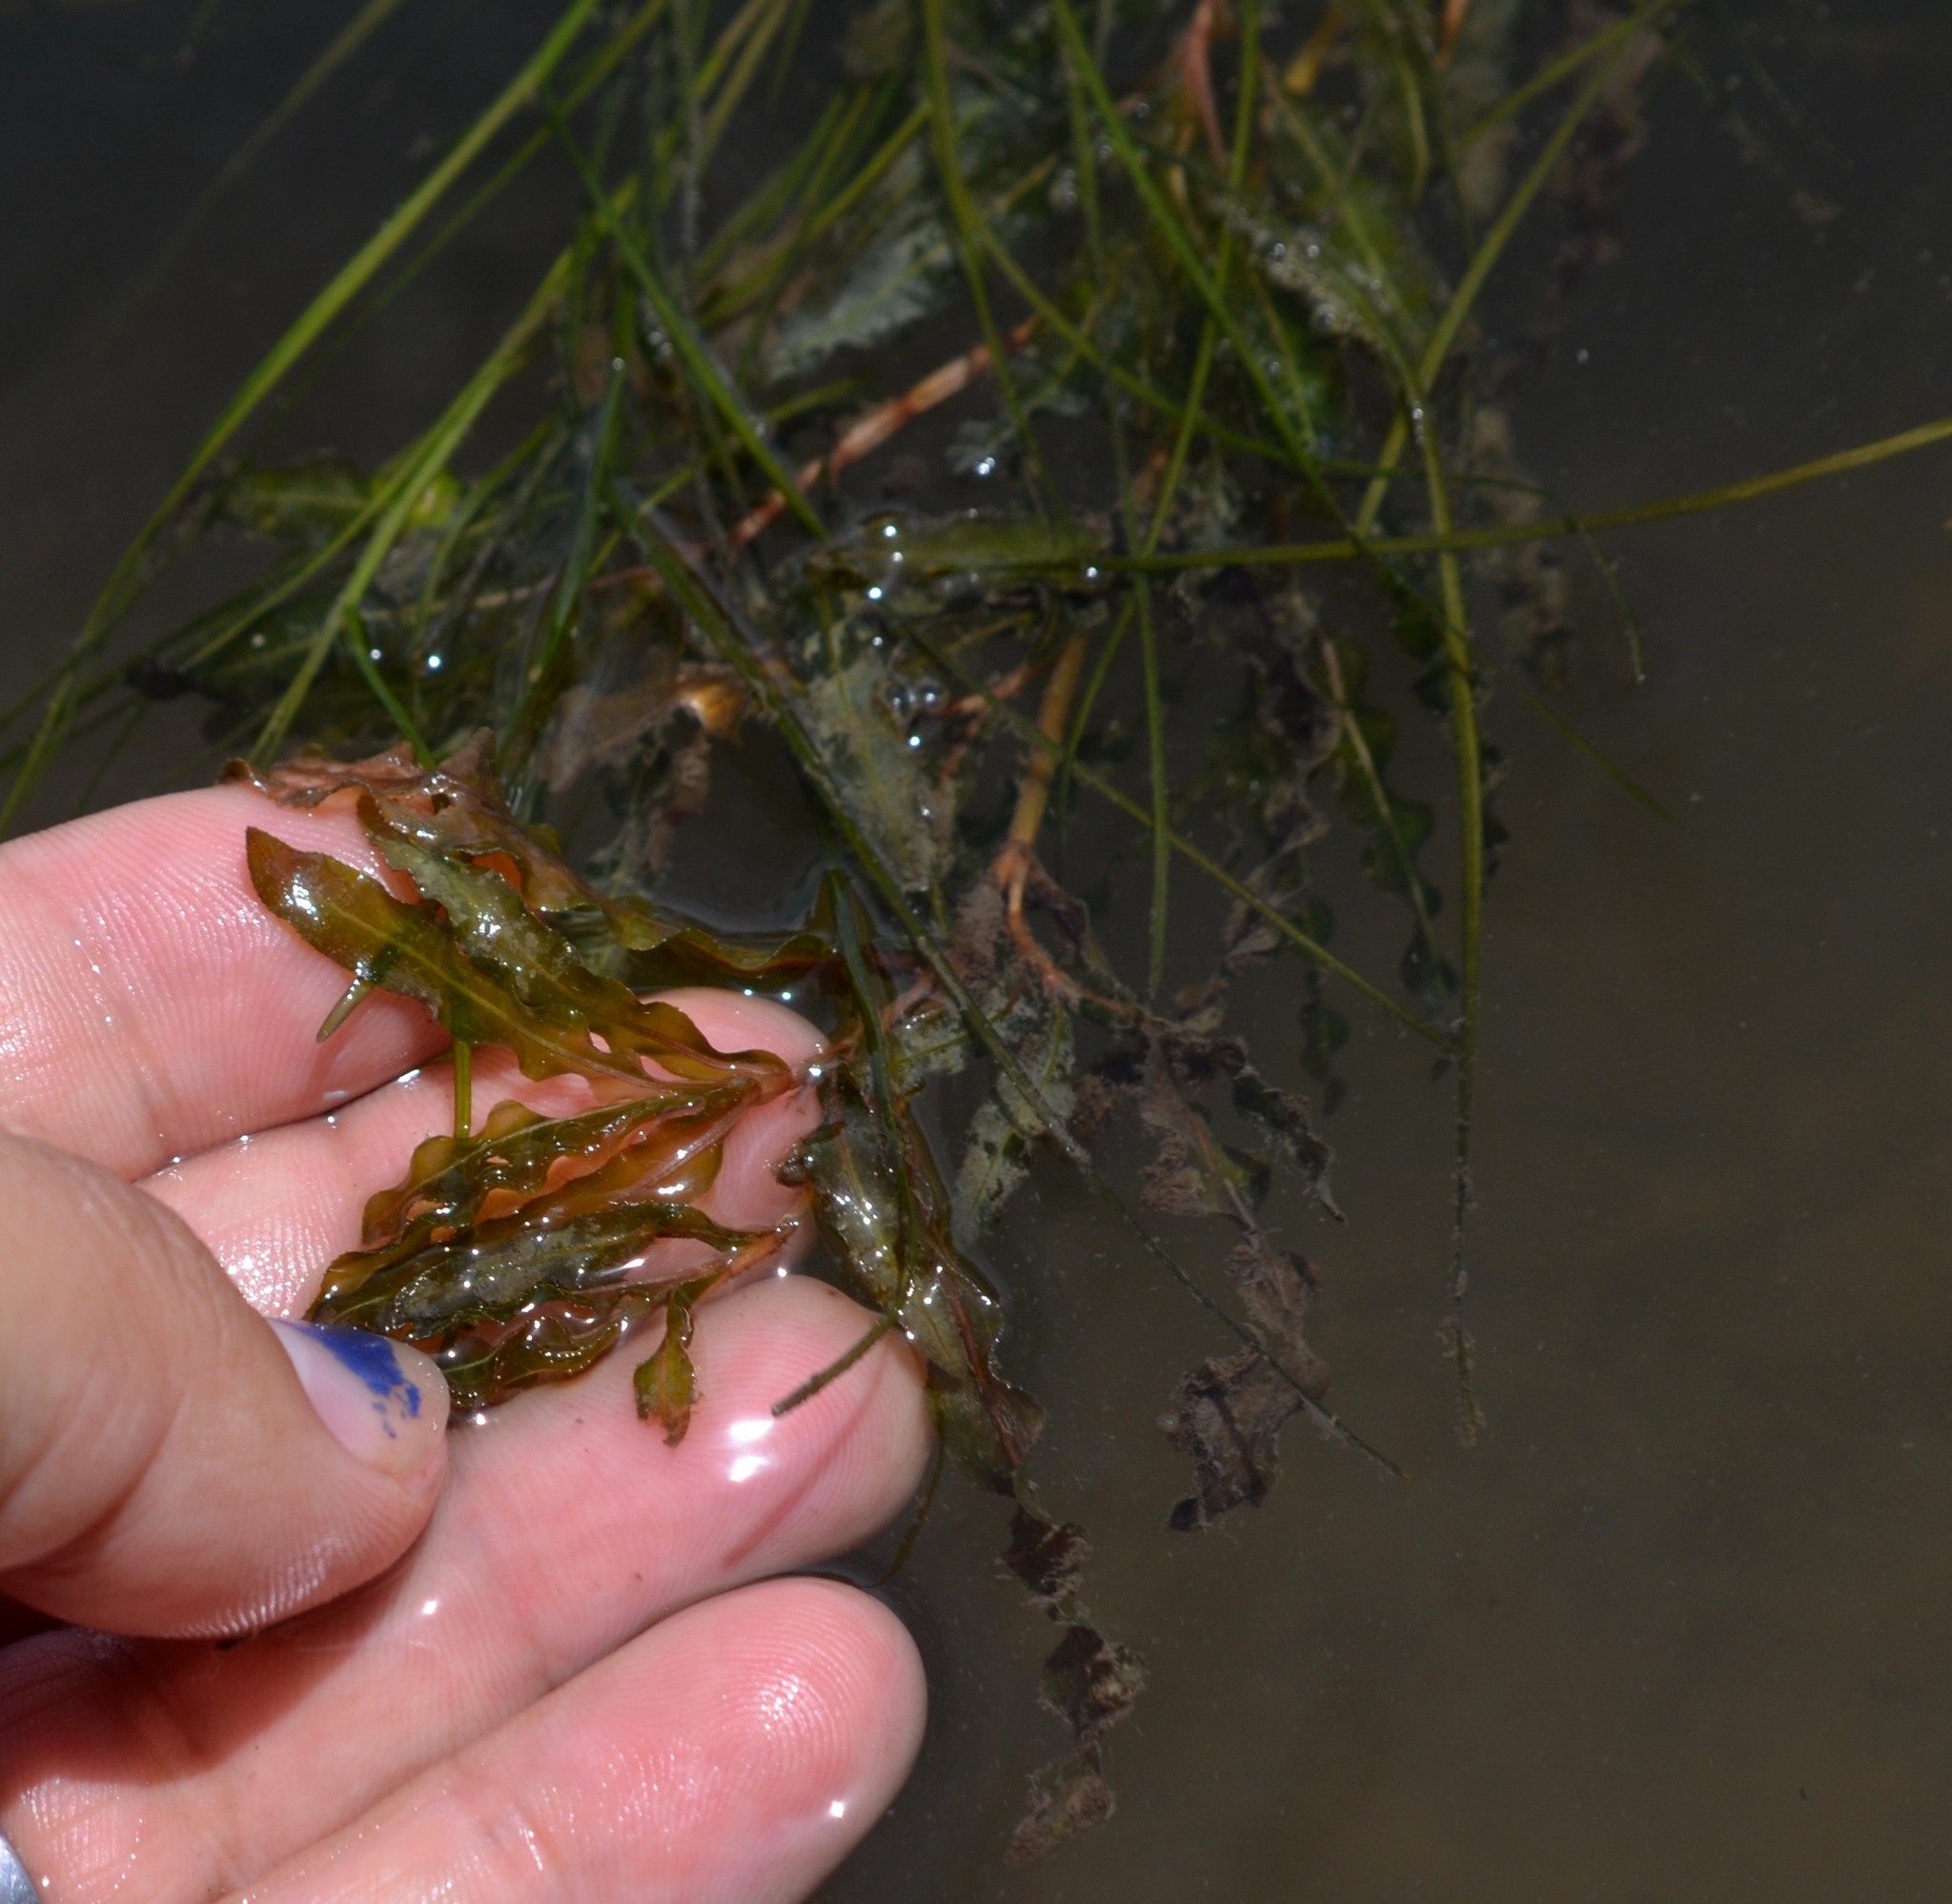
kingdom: Plantae
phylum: Tracheophyta
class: Liliopsida
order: Alismatales
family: Potamogetonaceae
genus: Potamogeton
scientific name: Potamogeton crispus
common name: Curled pondweed
